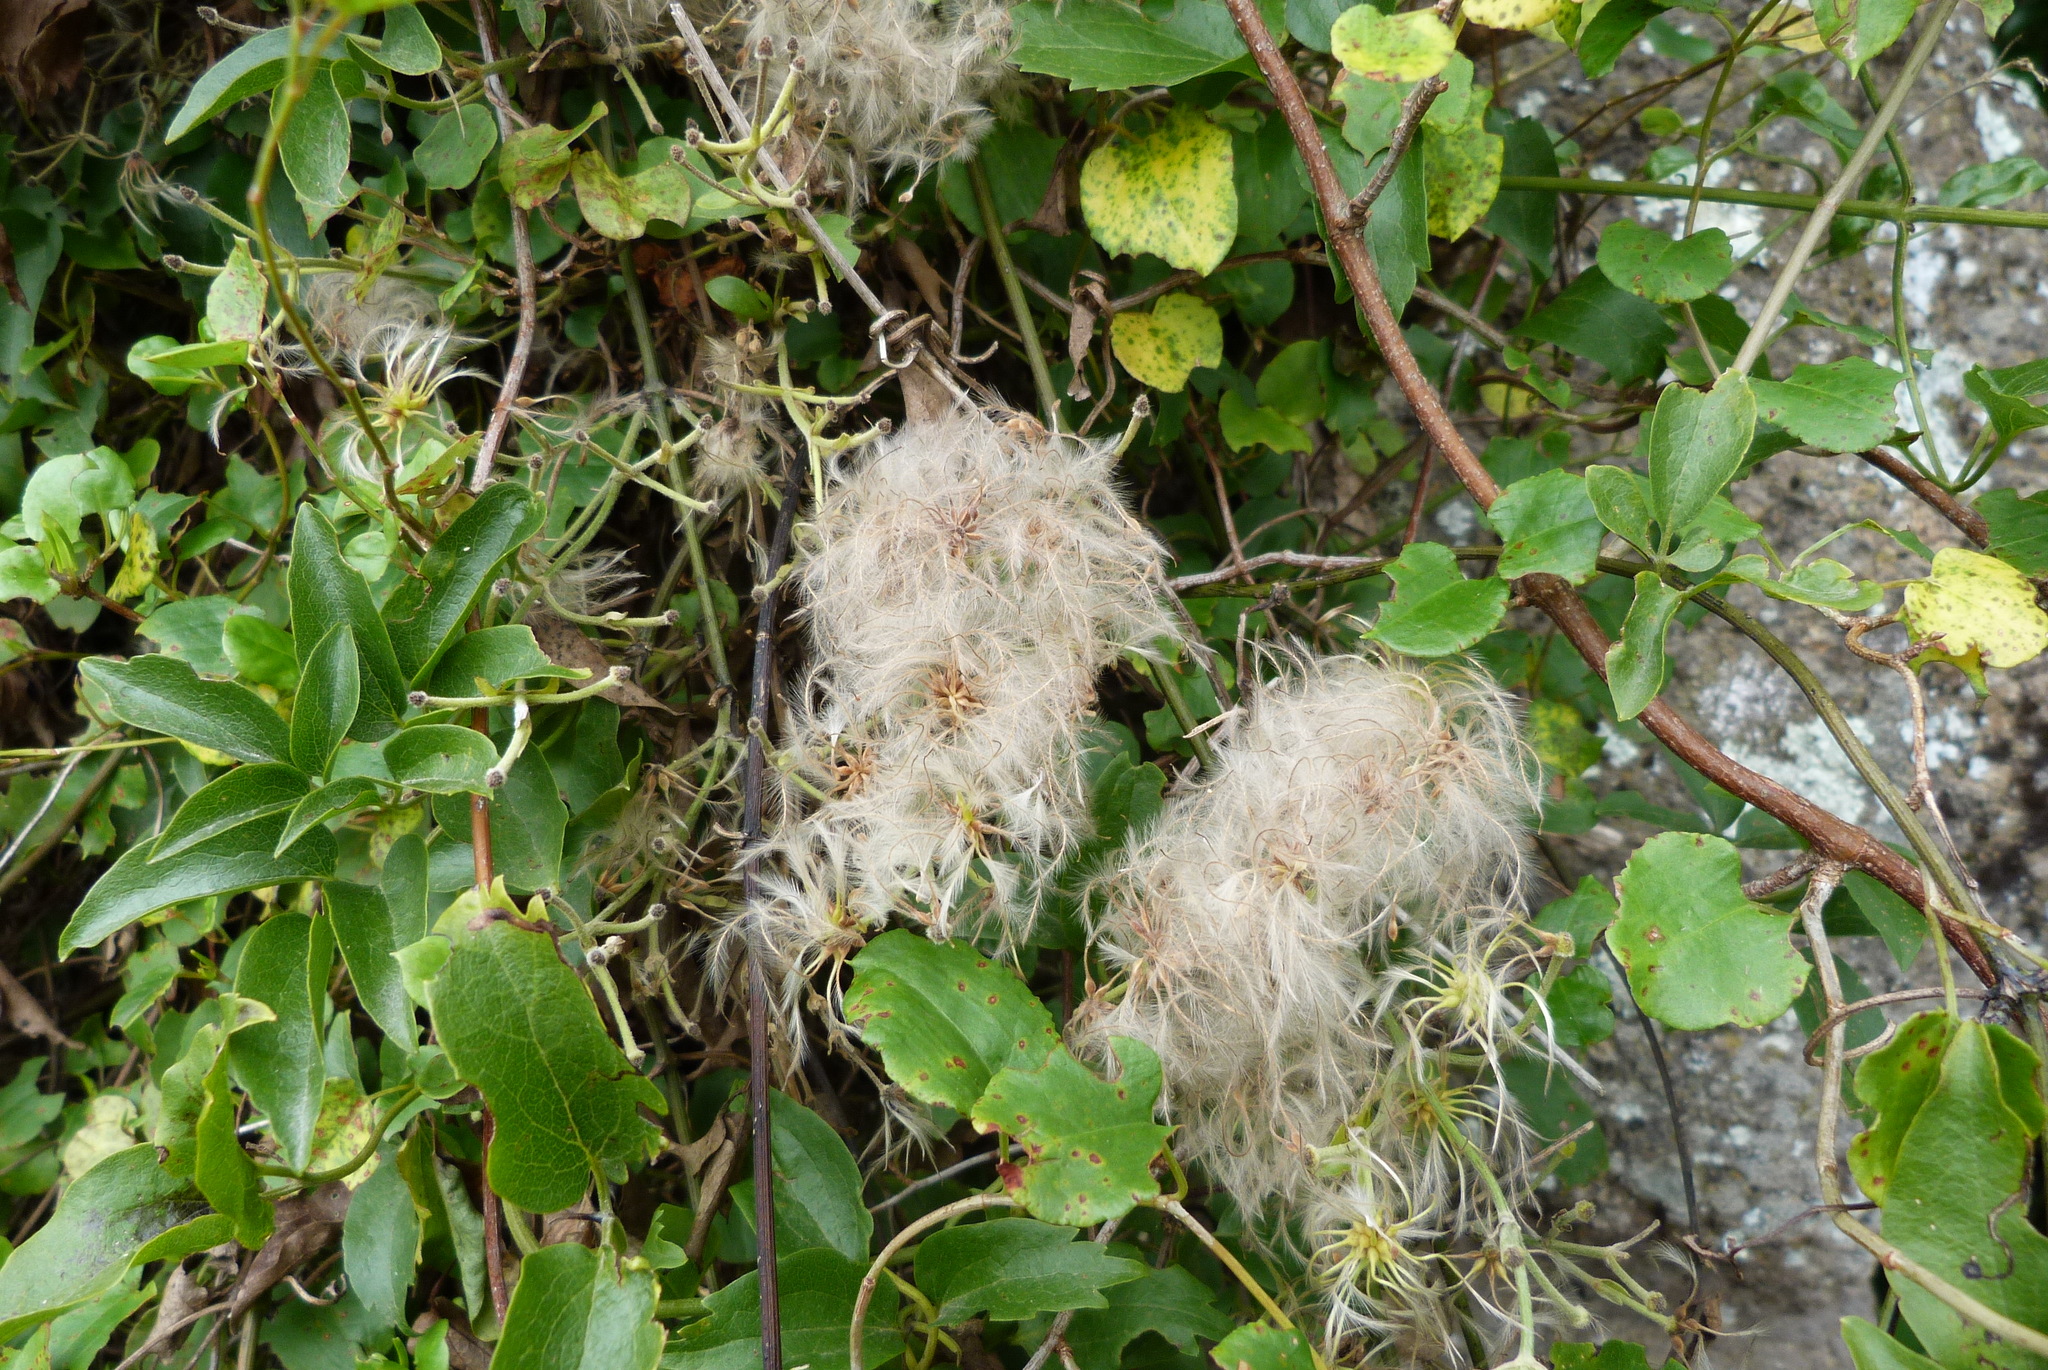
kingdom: Plantae
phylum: Tracheophyta
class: Magnoliopsida
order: Ranunculales
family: Ranunculaceae
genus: Clematis
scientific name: Clematis foetida
